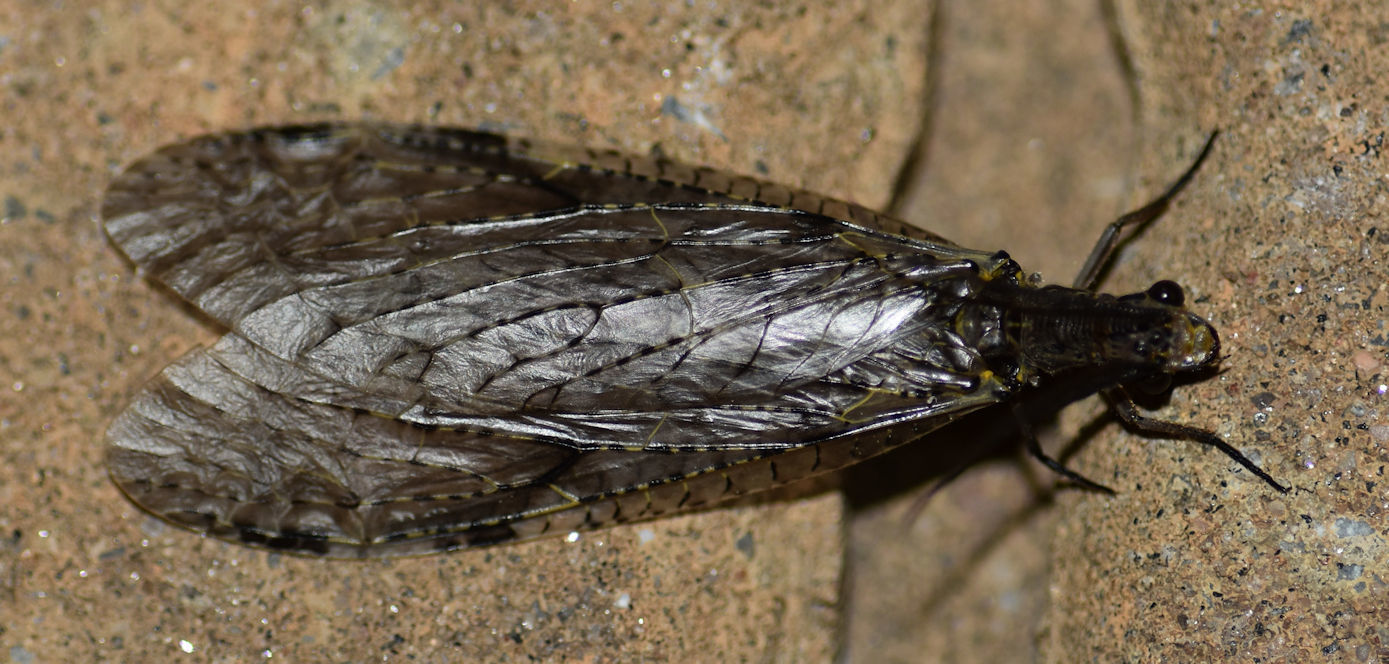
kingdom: Animalia
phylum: Arthropoda
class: Insecta
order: Megaloptera
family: Corydalidae
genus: Chauliodes
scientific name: Chauliodes rastricornis
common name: Spring fishfly
